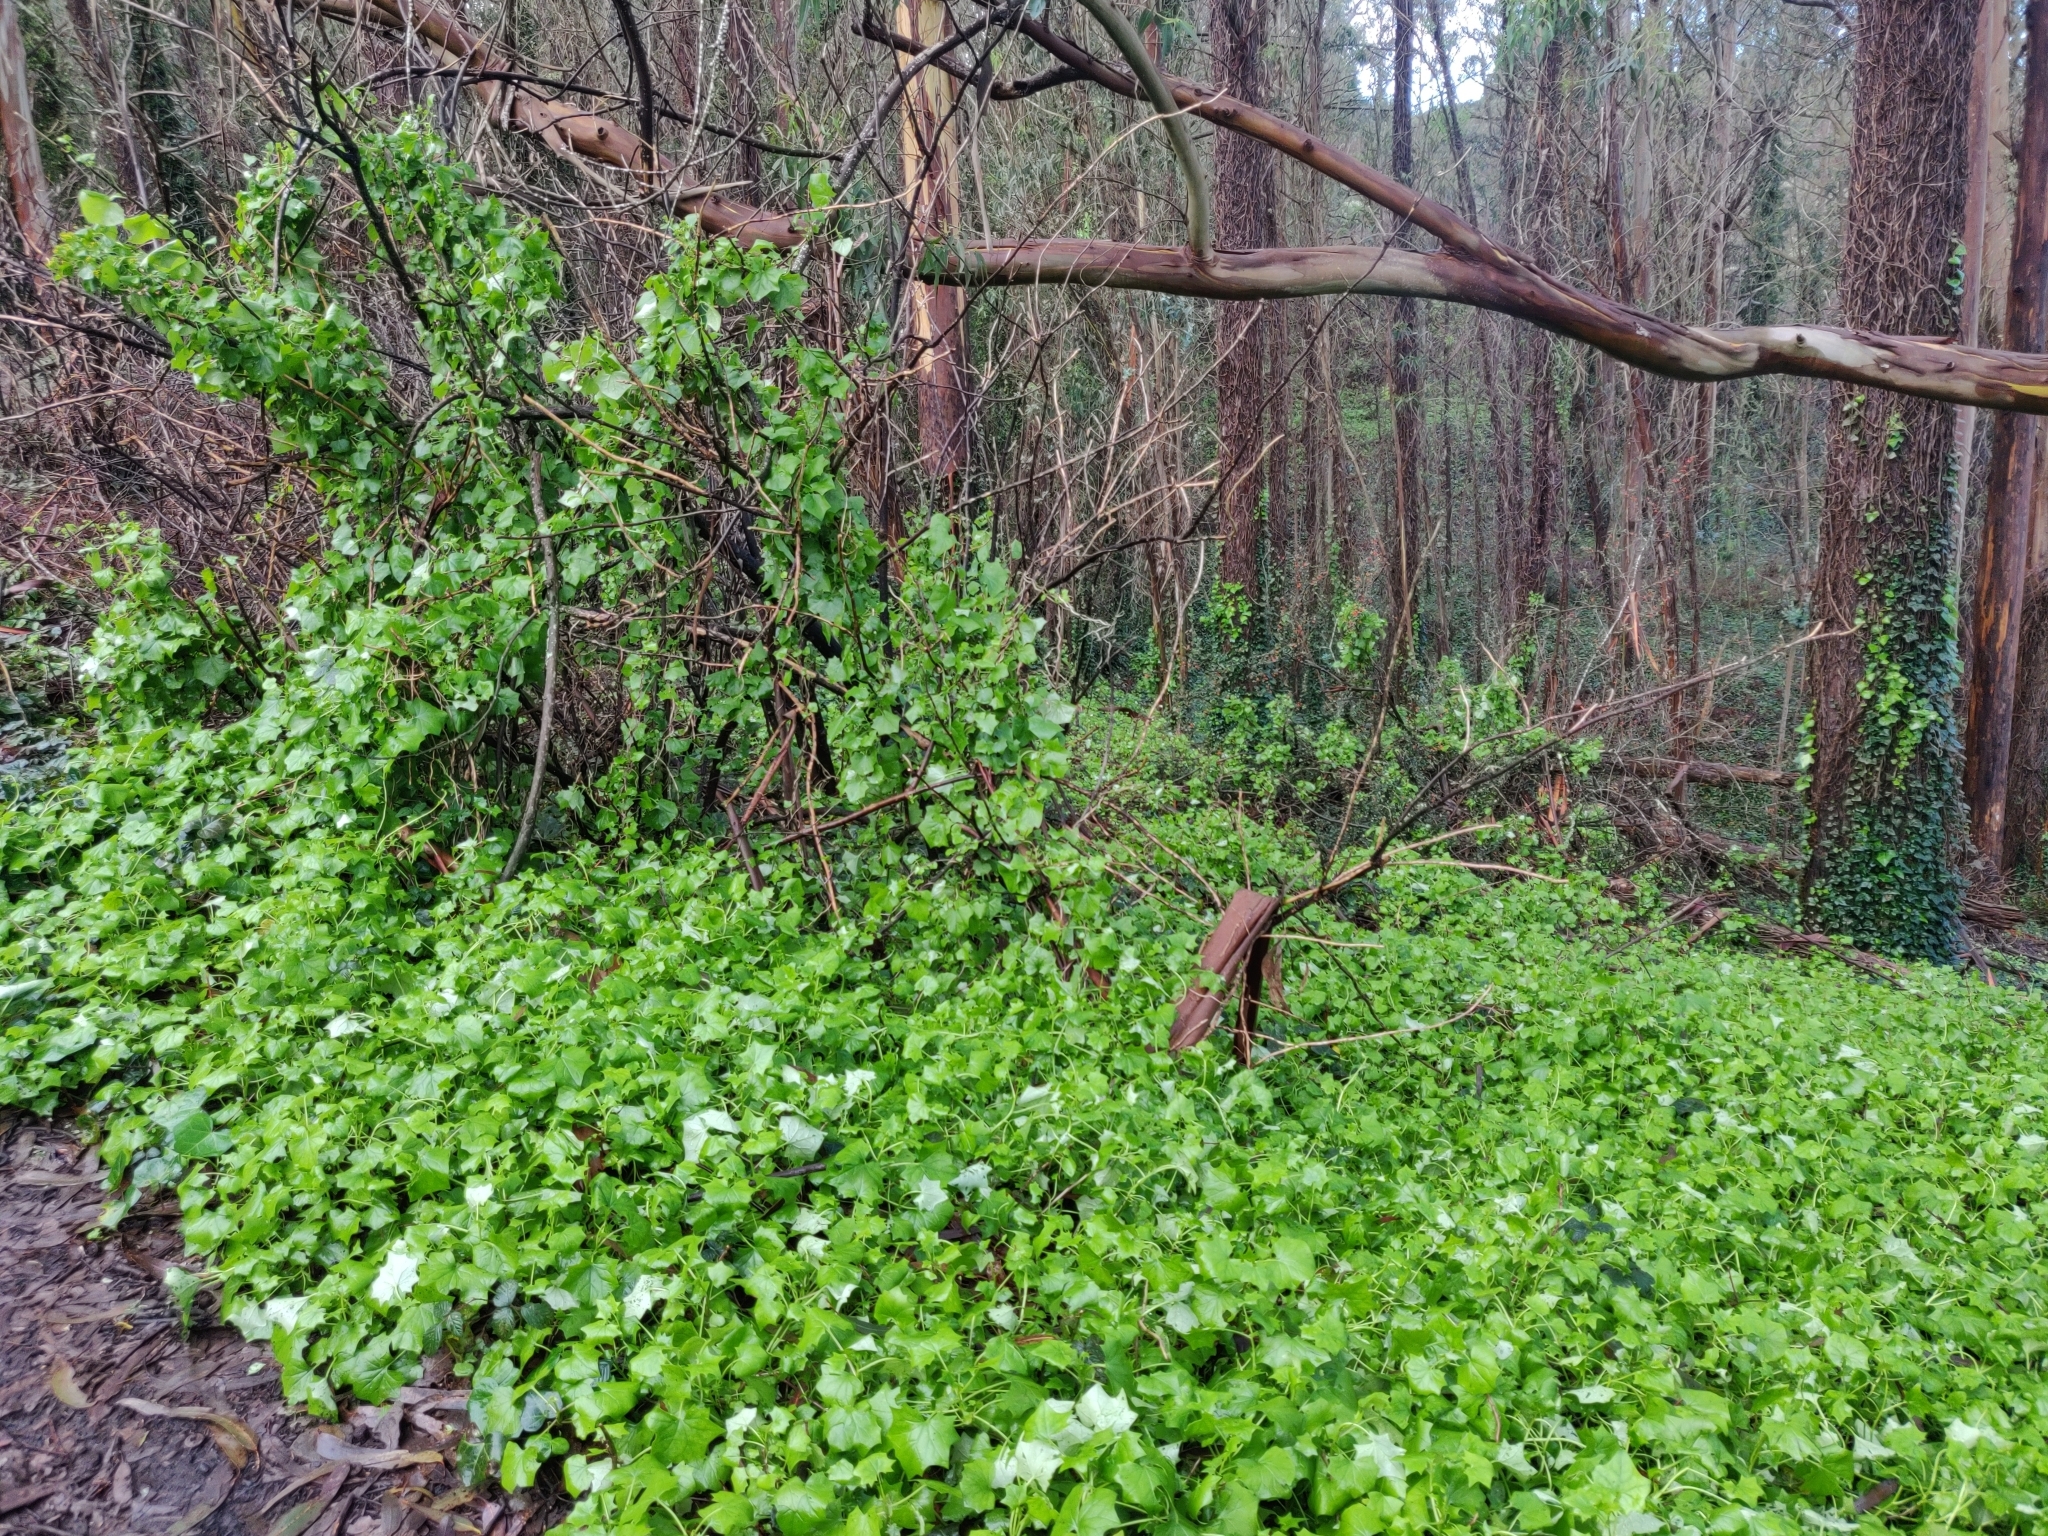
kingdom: Plantae
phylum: Tracheophyta
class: Magnoliopsida
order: Asterales
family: Asteraceae
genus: Delairea
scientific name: Delairea odorata
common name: Cape-ivy
